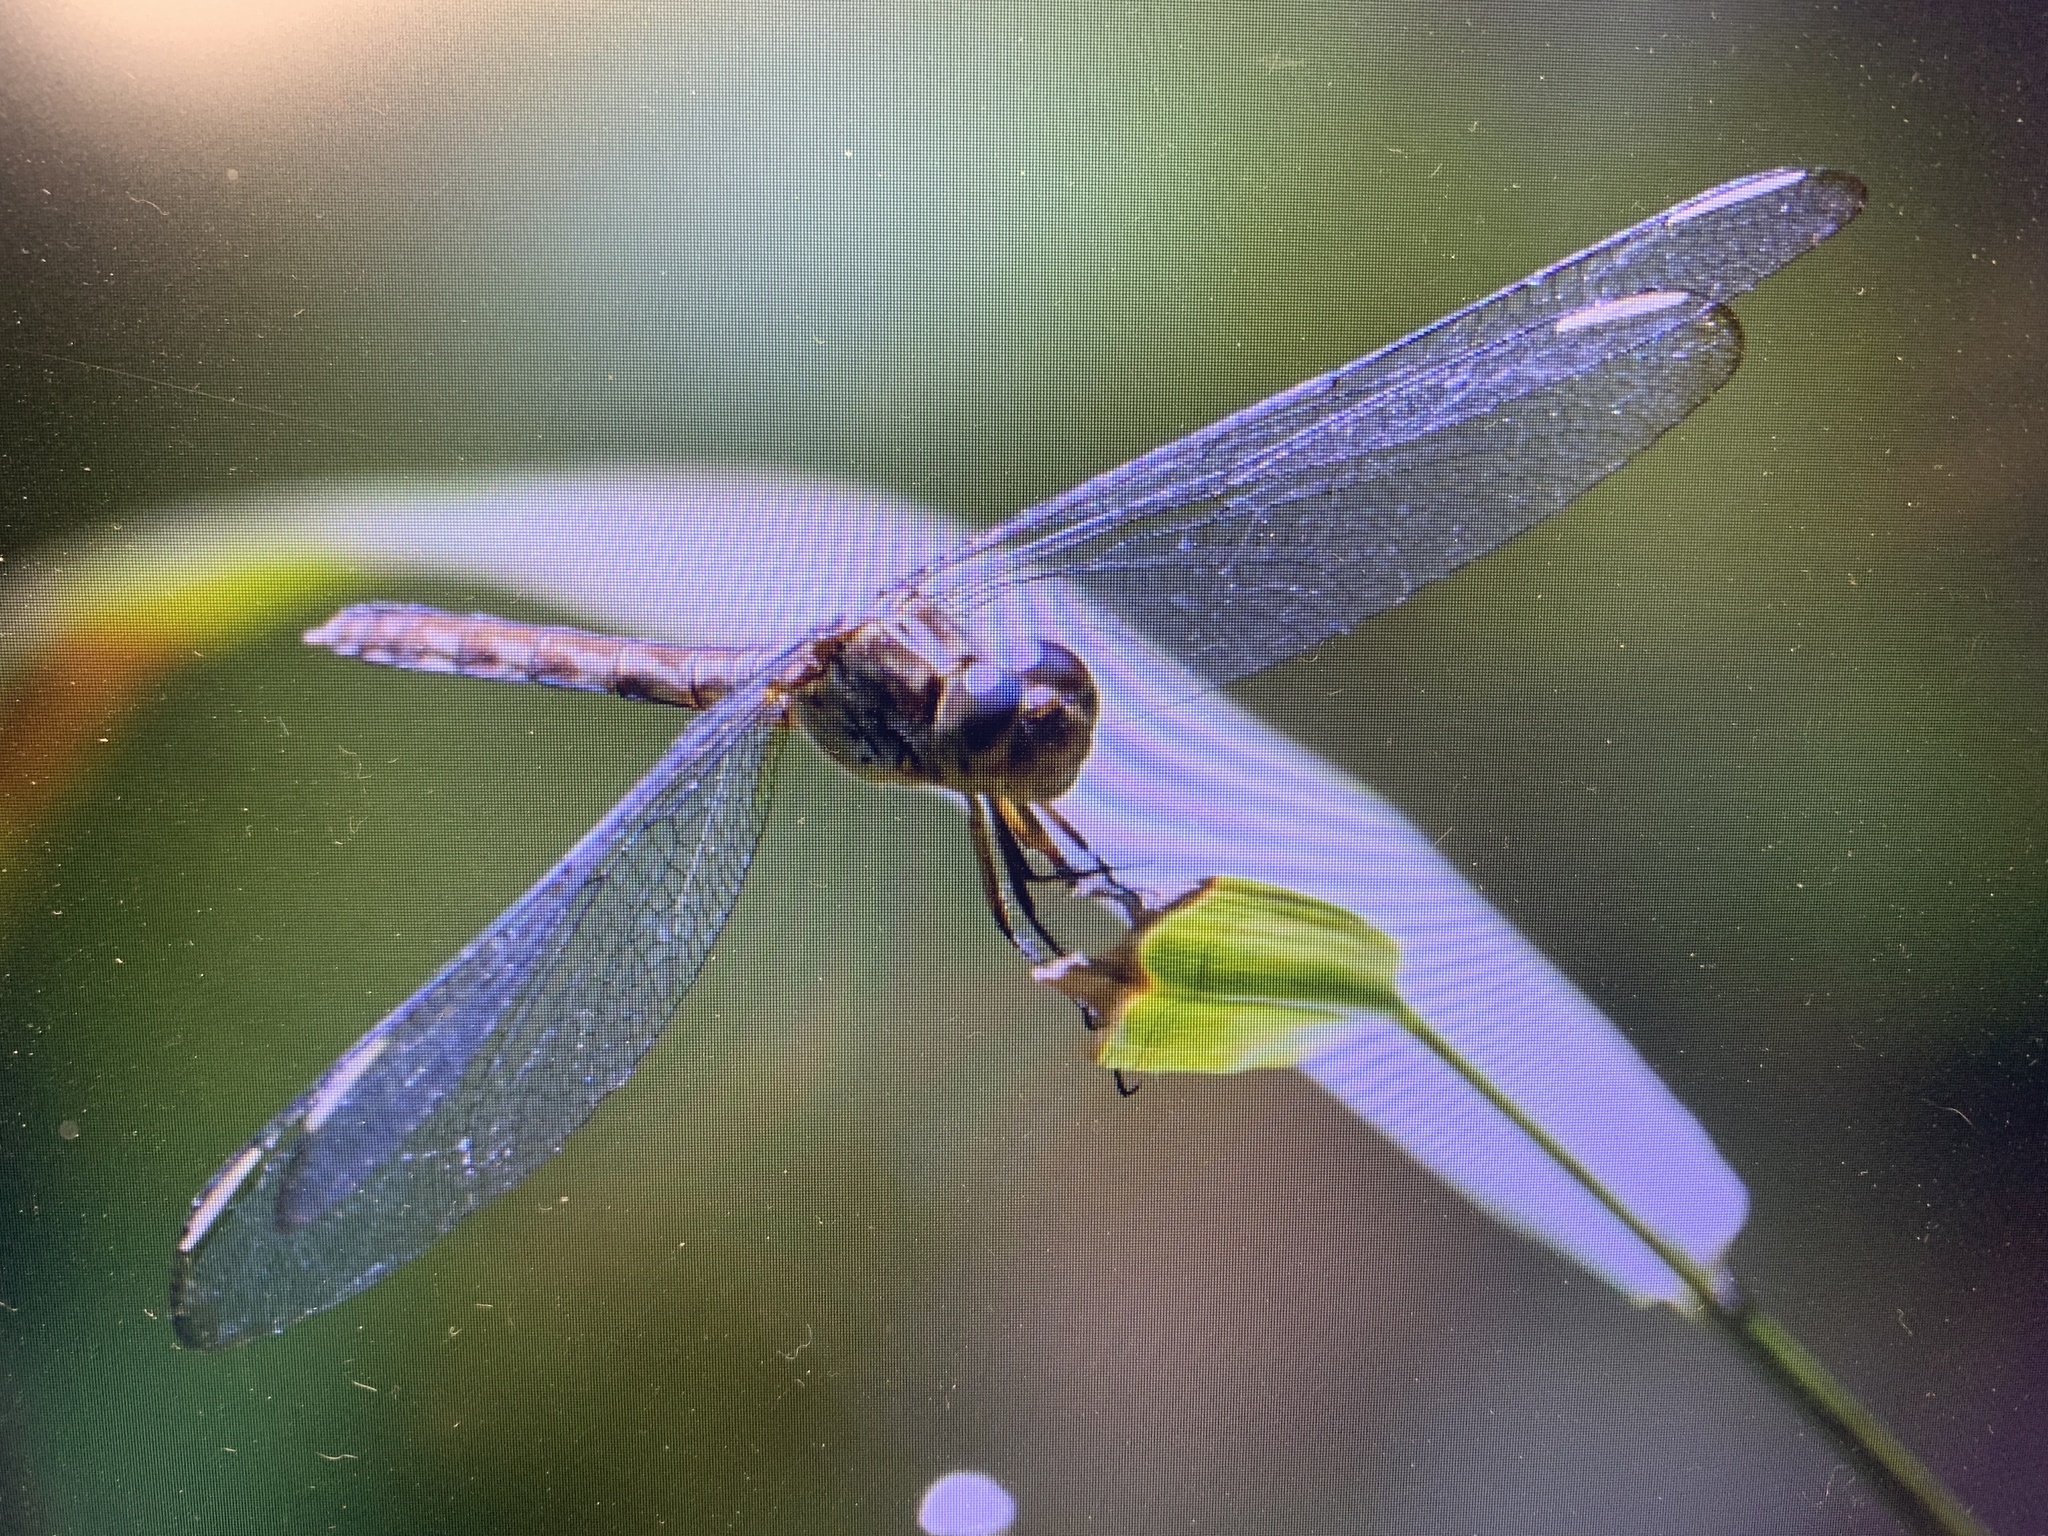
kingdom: Animalia
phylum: Arthropoda
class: Insecta
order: Odonata
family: Libellulidae
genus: Erythrodiplax
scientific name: Erythrodiplax umbrata
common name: Band-winged dragonlet
